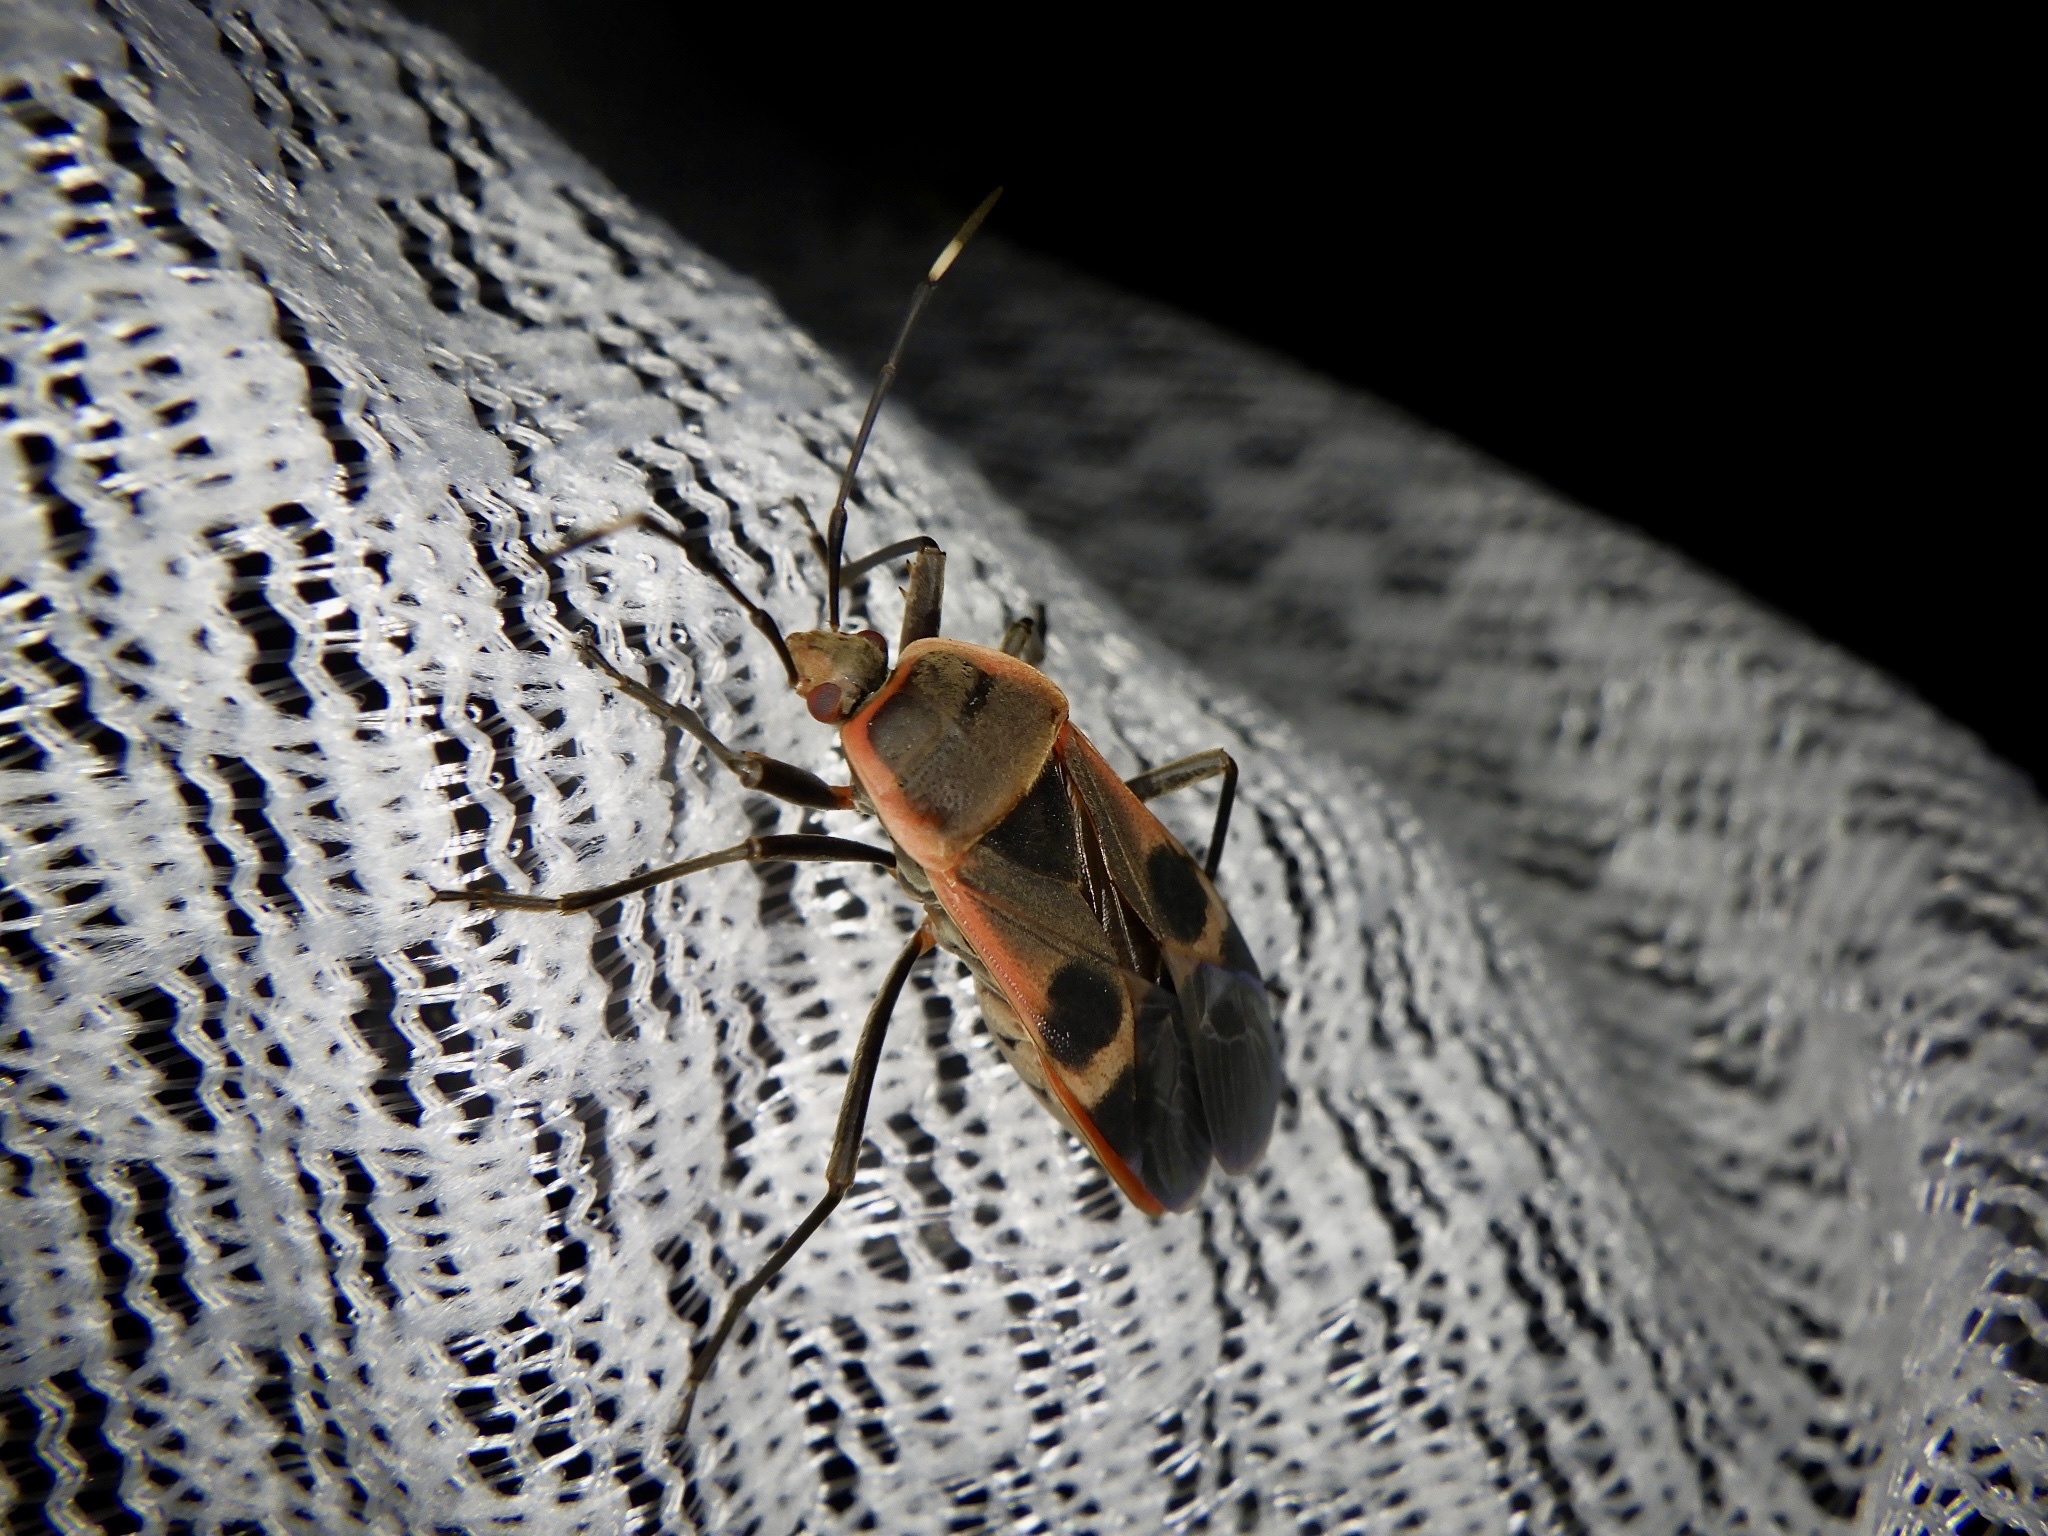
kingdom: Animalia
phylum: Arthropoda
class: Insecta
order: Hemiptera
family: Largidae
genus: Physopelta
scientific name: Physopelta gutta
